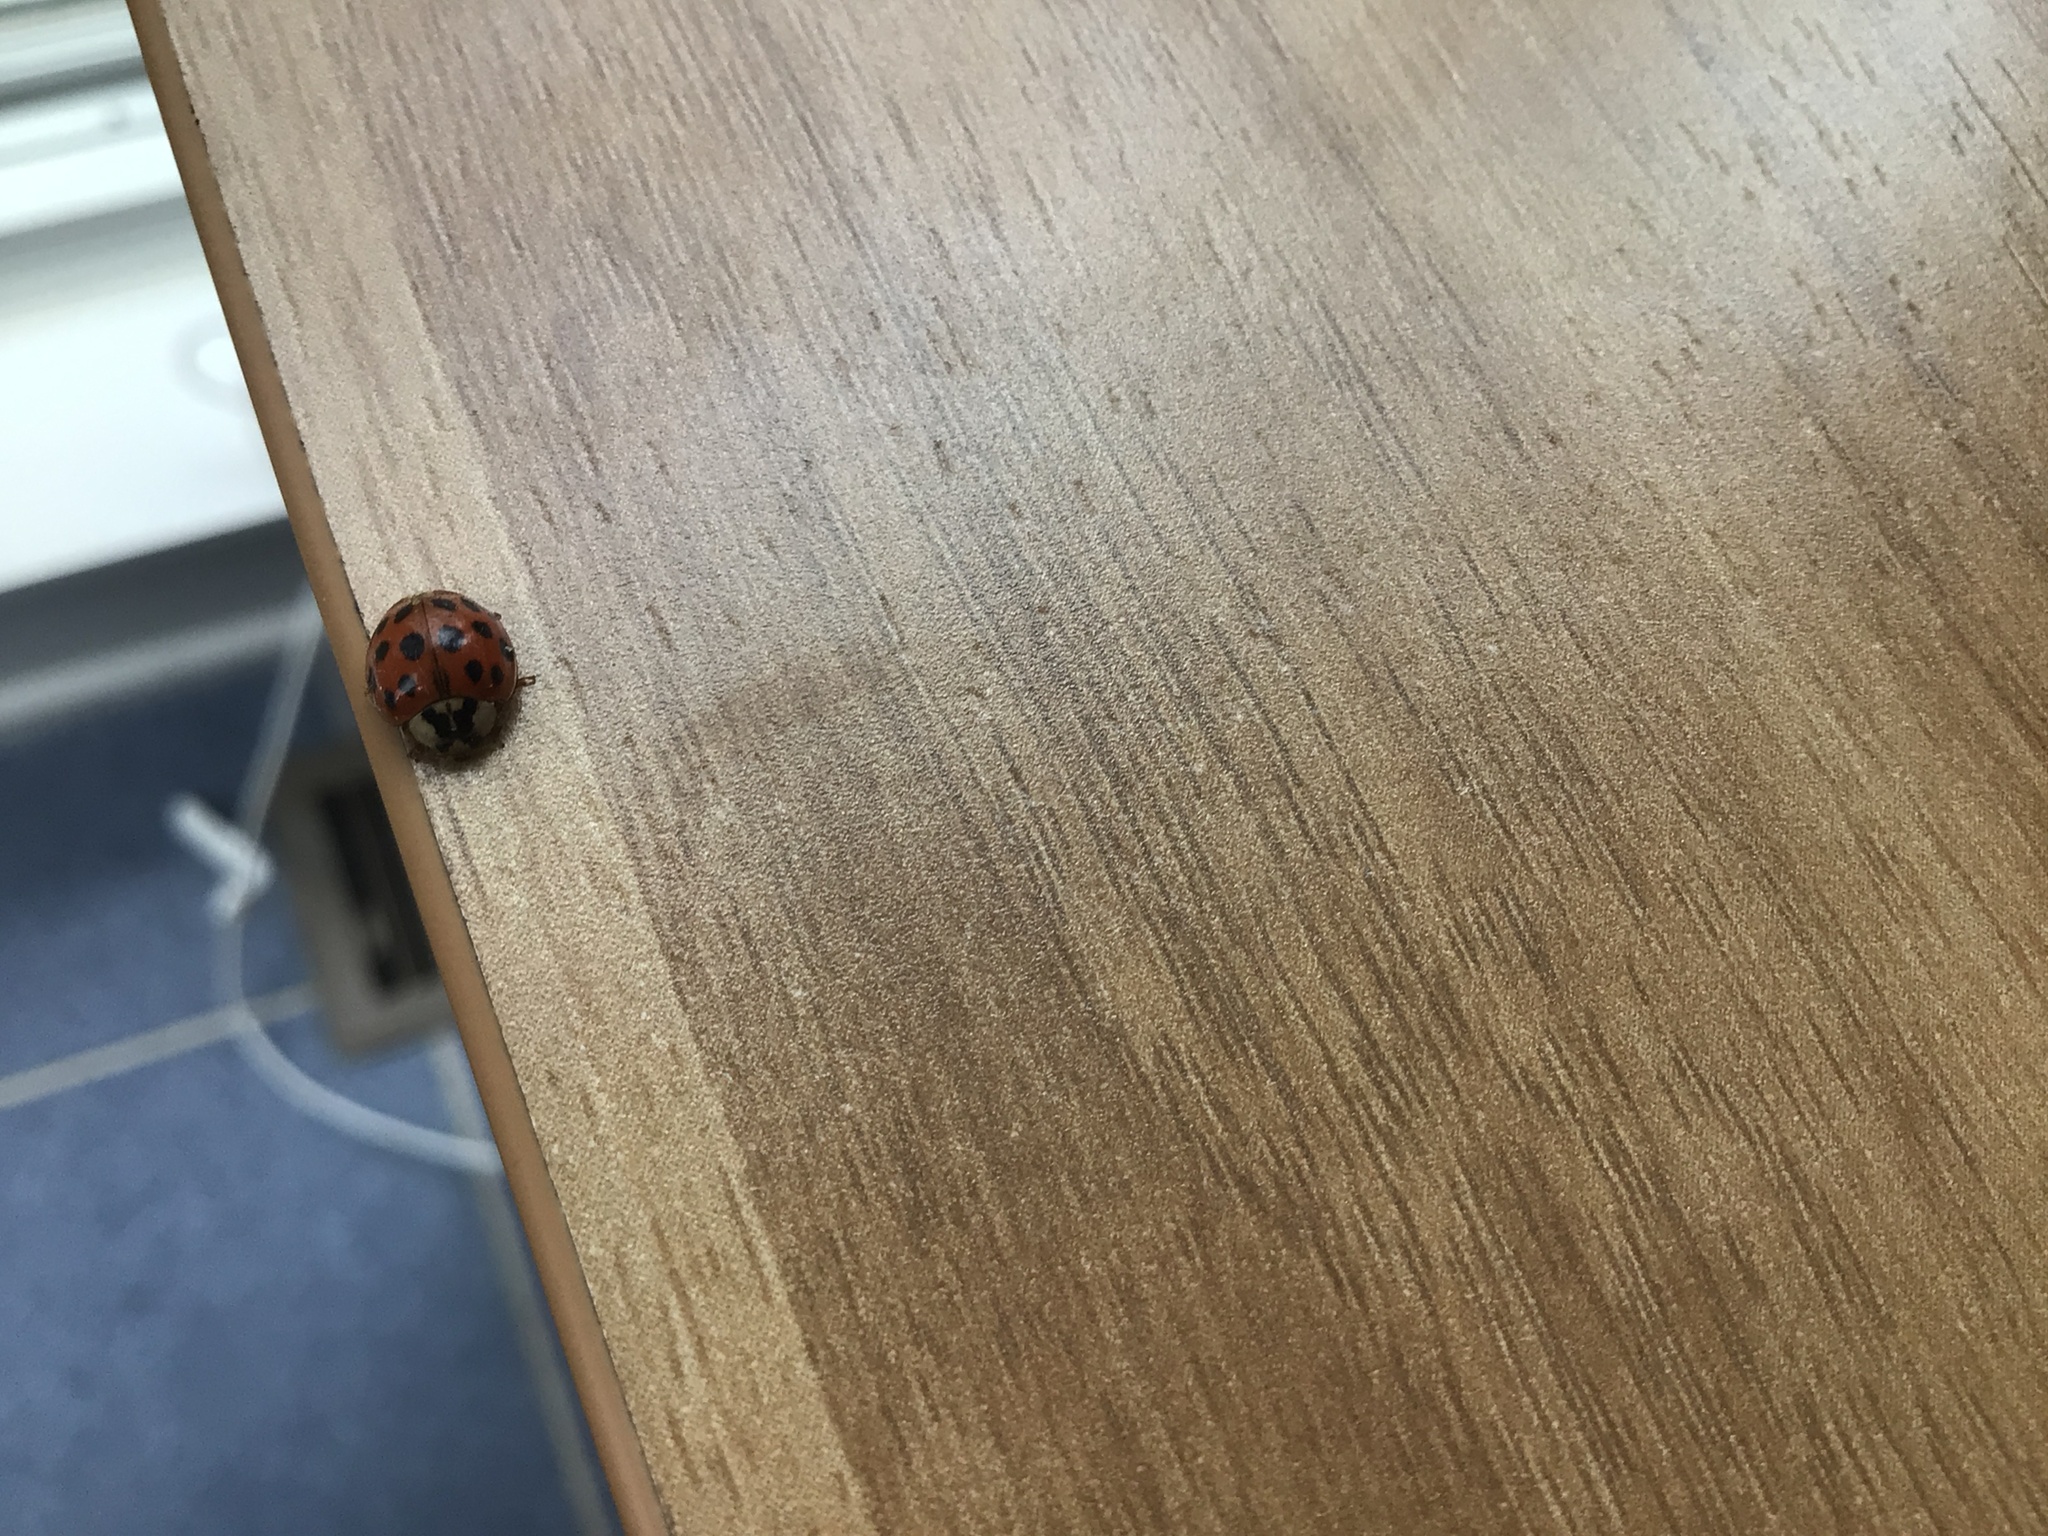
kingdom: Animalia
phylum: Arthropoda
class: Insecta
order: Coleoptera
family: Coccinellidae
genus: Harmonia
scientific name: Harmonia axyridis
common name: Harlequin ladybird
